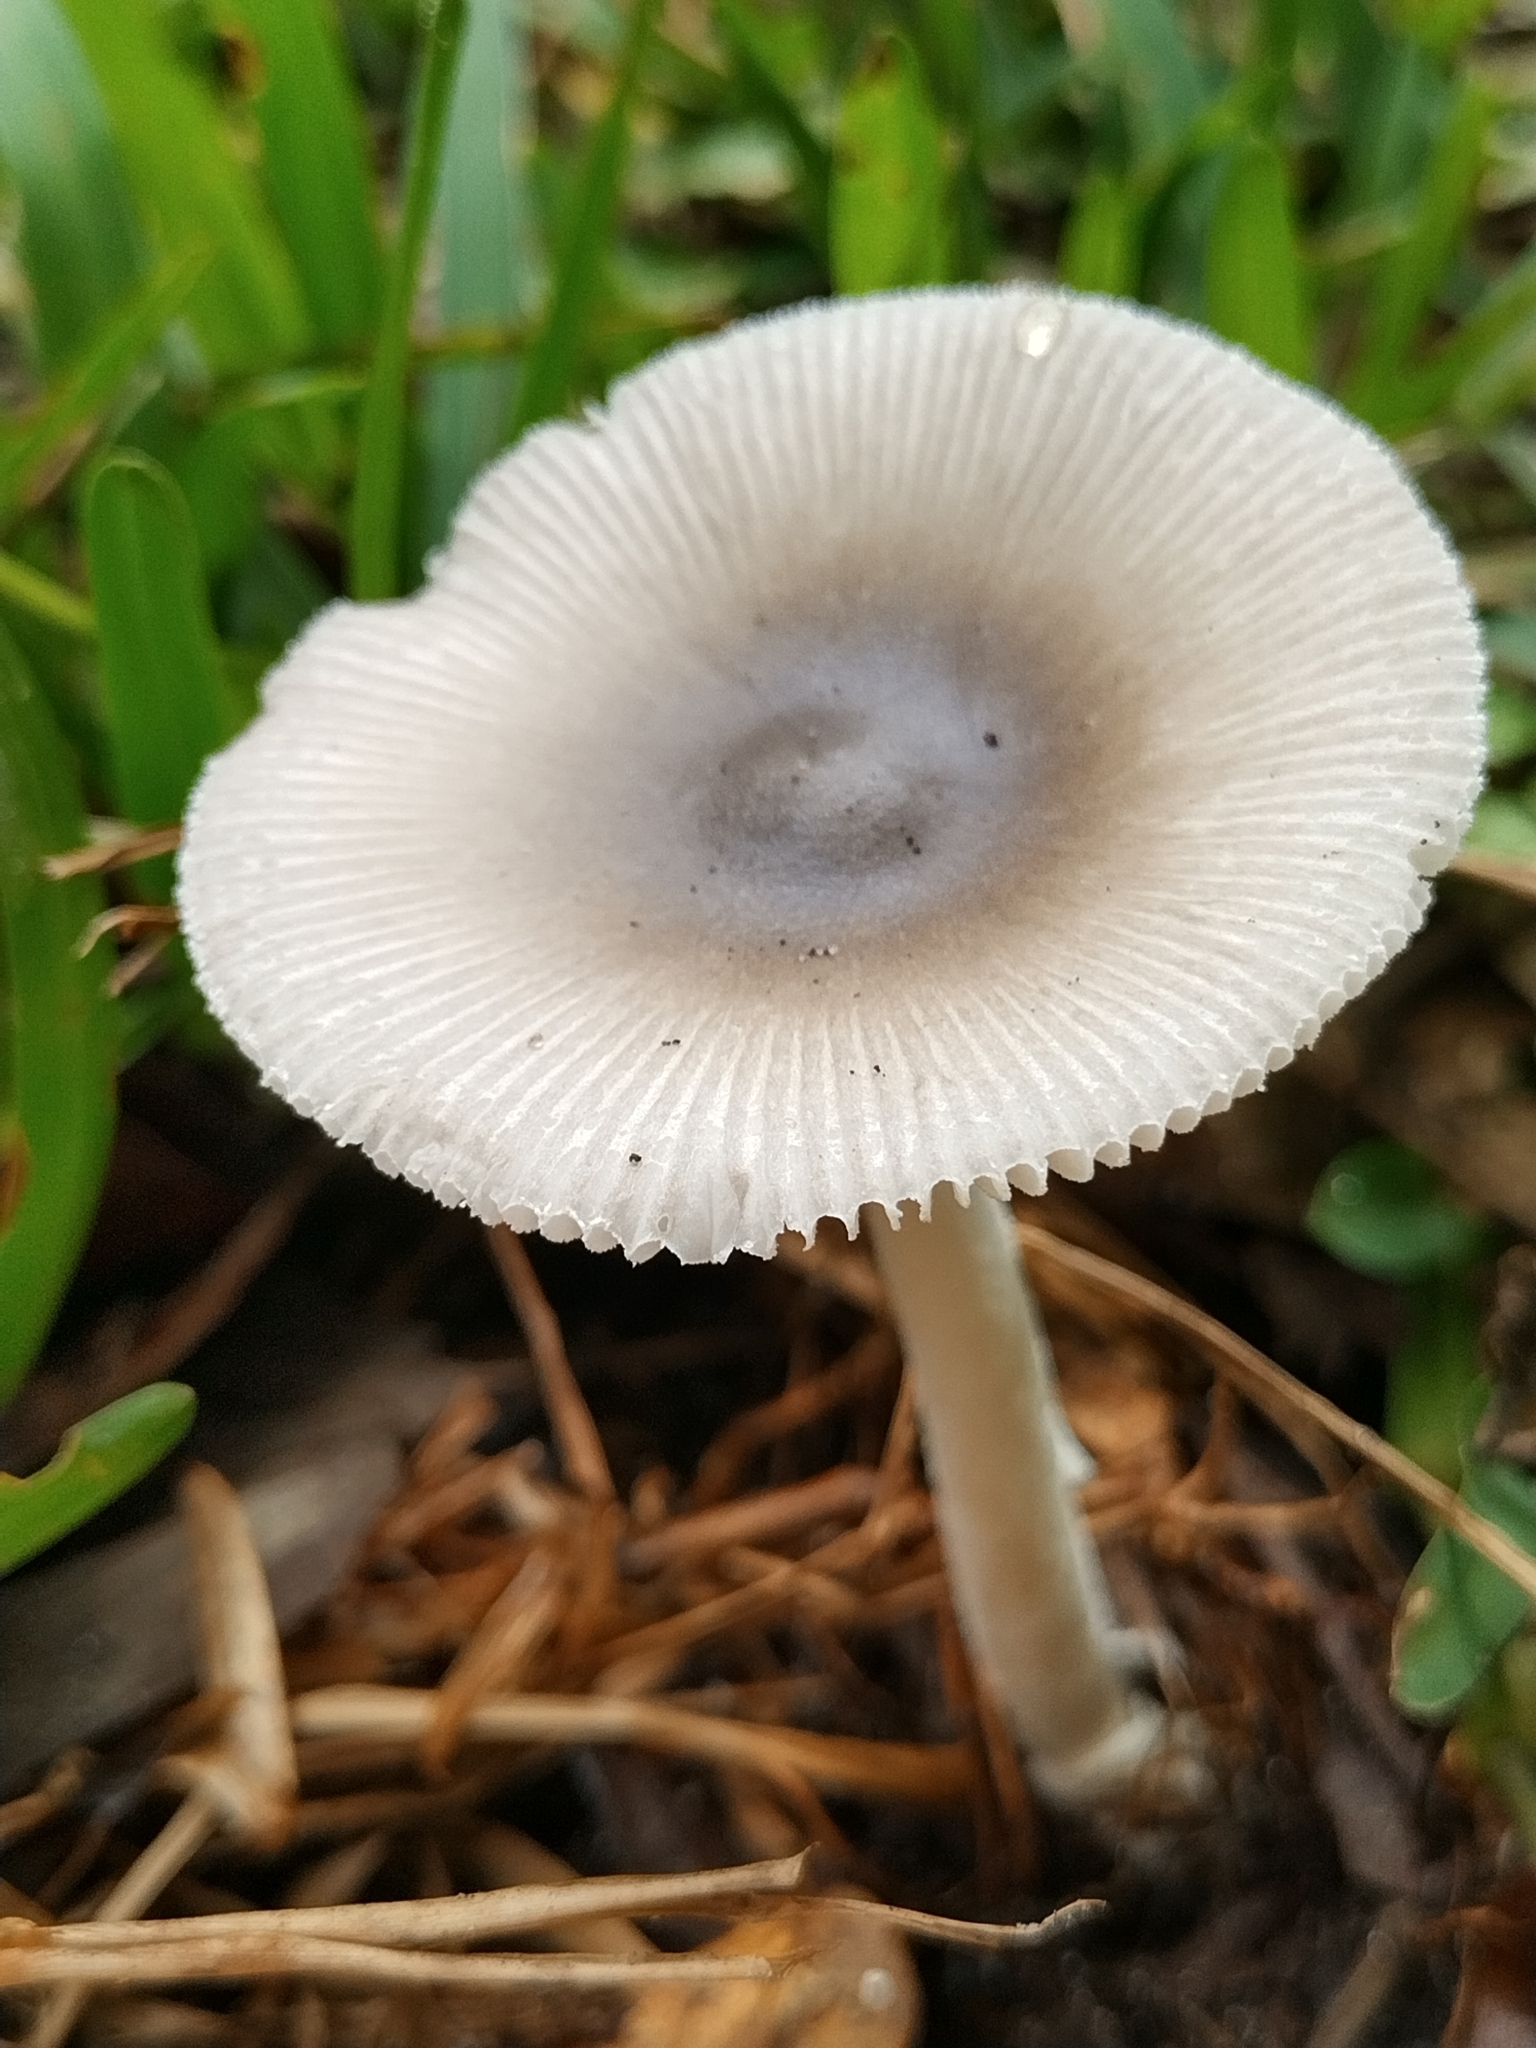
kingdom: Fungi
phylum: Basidiomycota
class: Agaricomycetes
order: Agaricales
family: Amanitaceae
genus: Amanita
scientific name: Amanita vaginata
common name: Grisette
